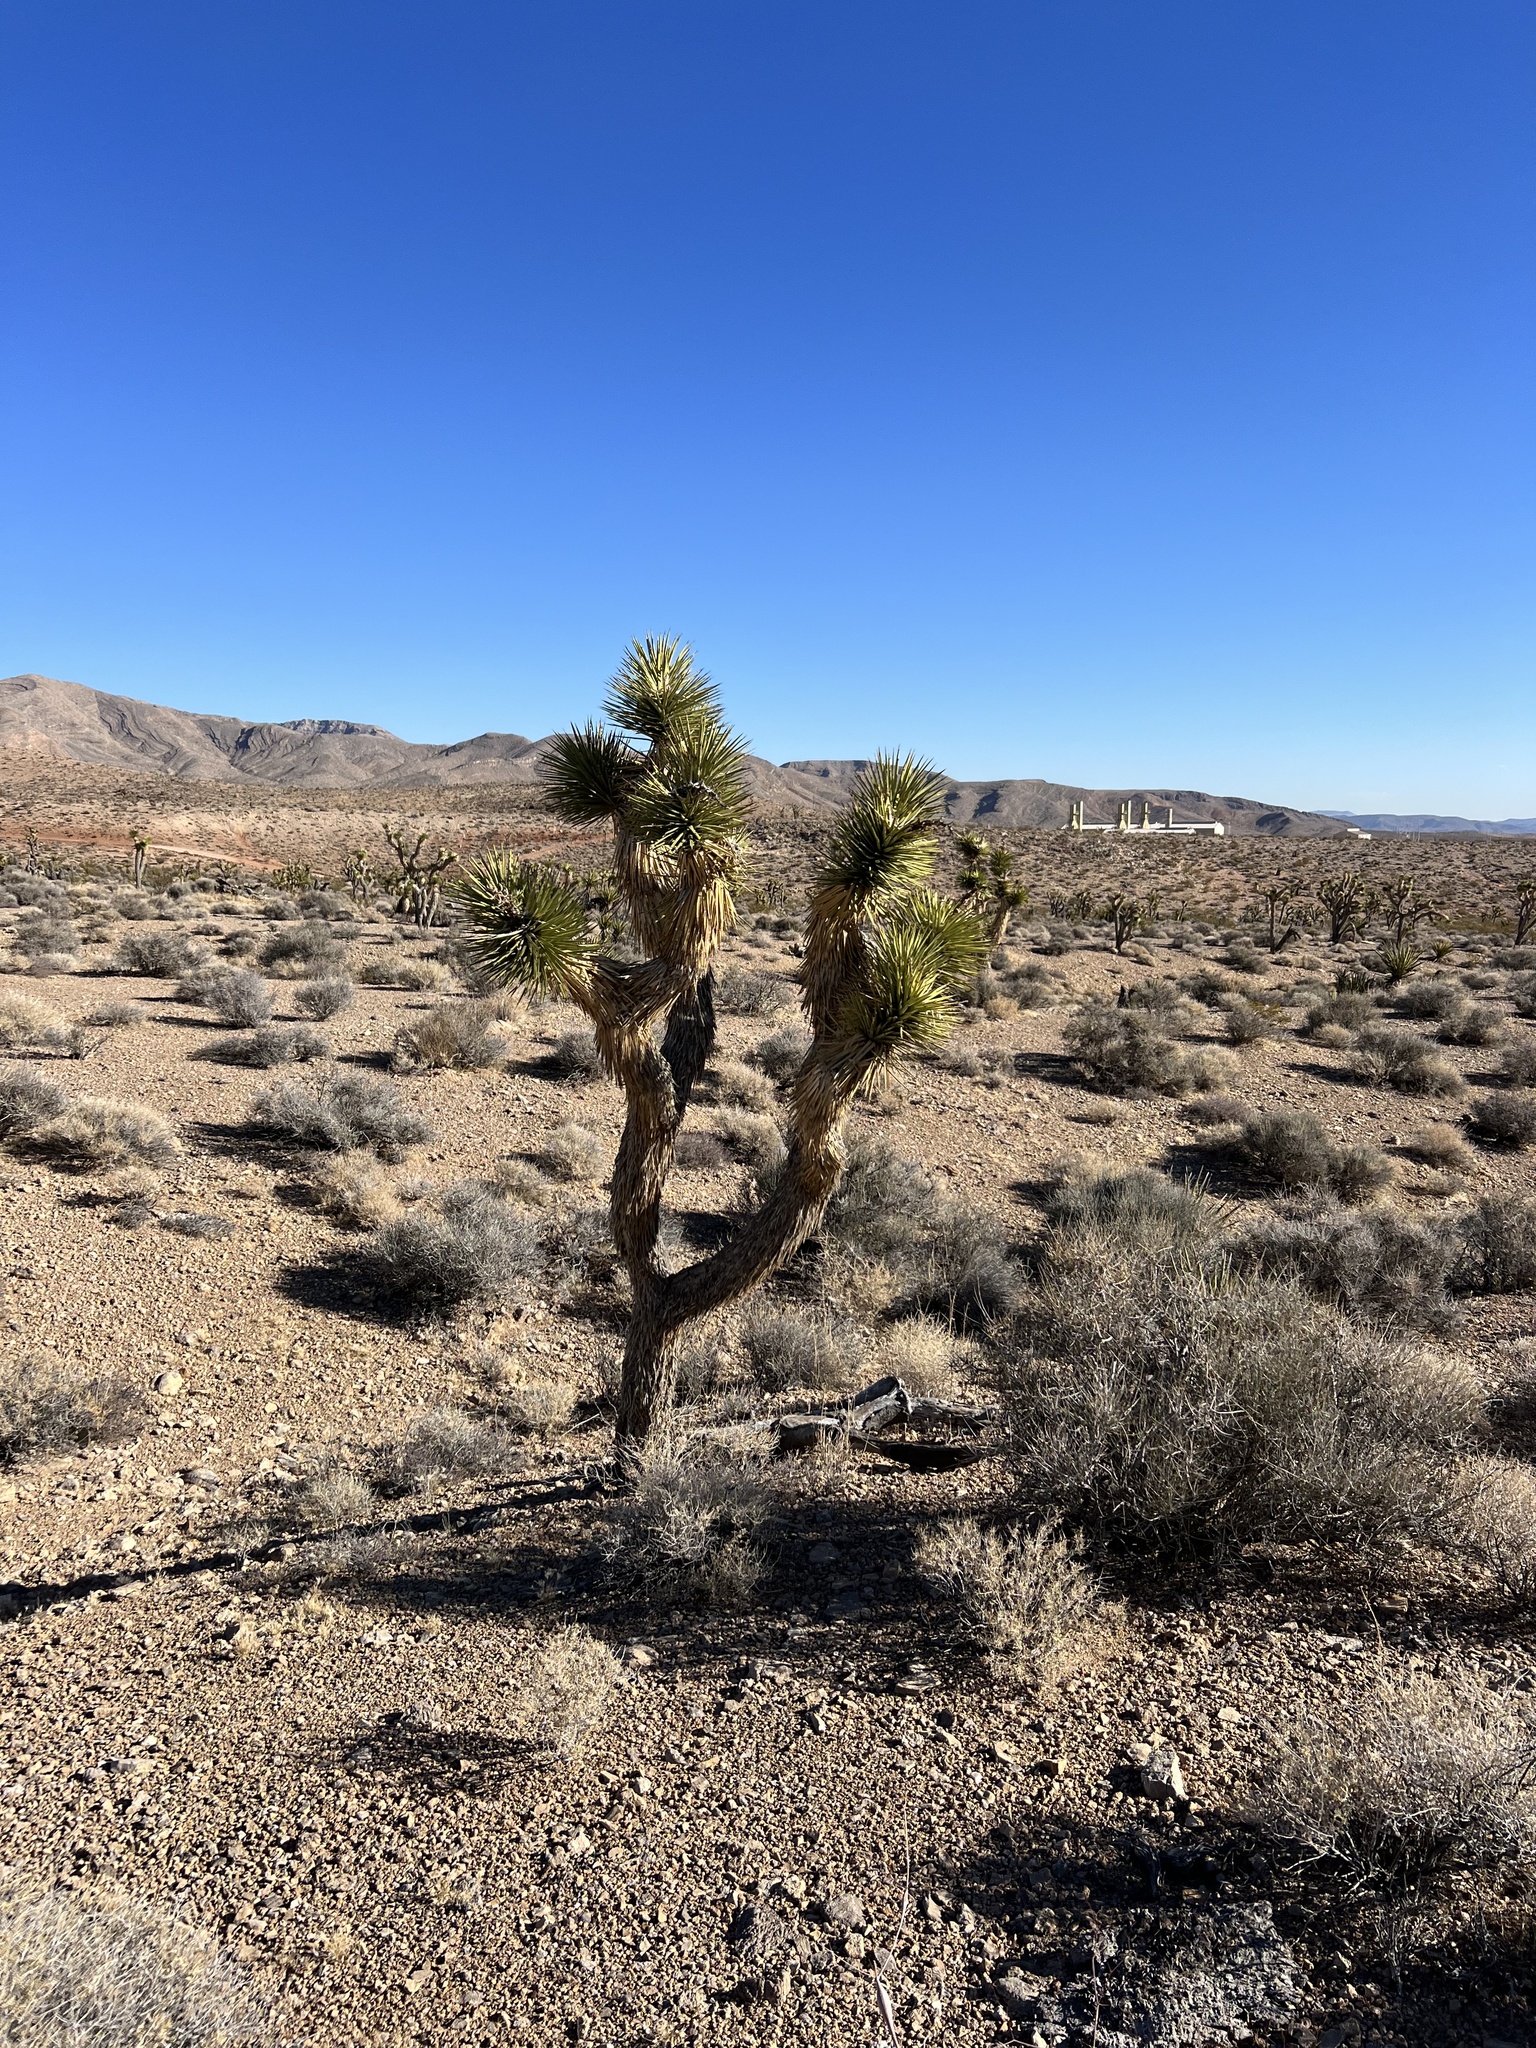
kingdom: Plantae
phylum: Tracheophyta
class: Liliopsida
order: Asparagales
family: Asparagaceae
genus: Yucca
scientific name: Yucca brevifolia
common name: Joshua tree
